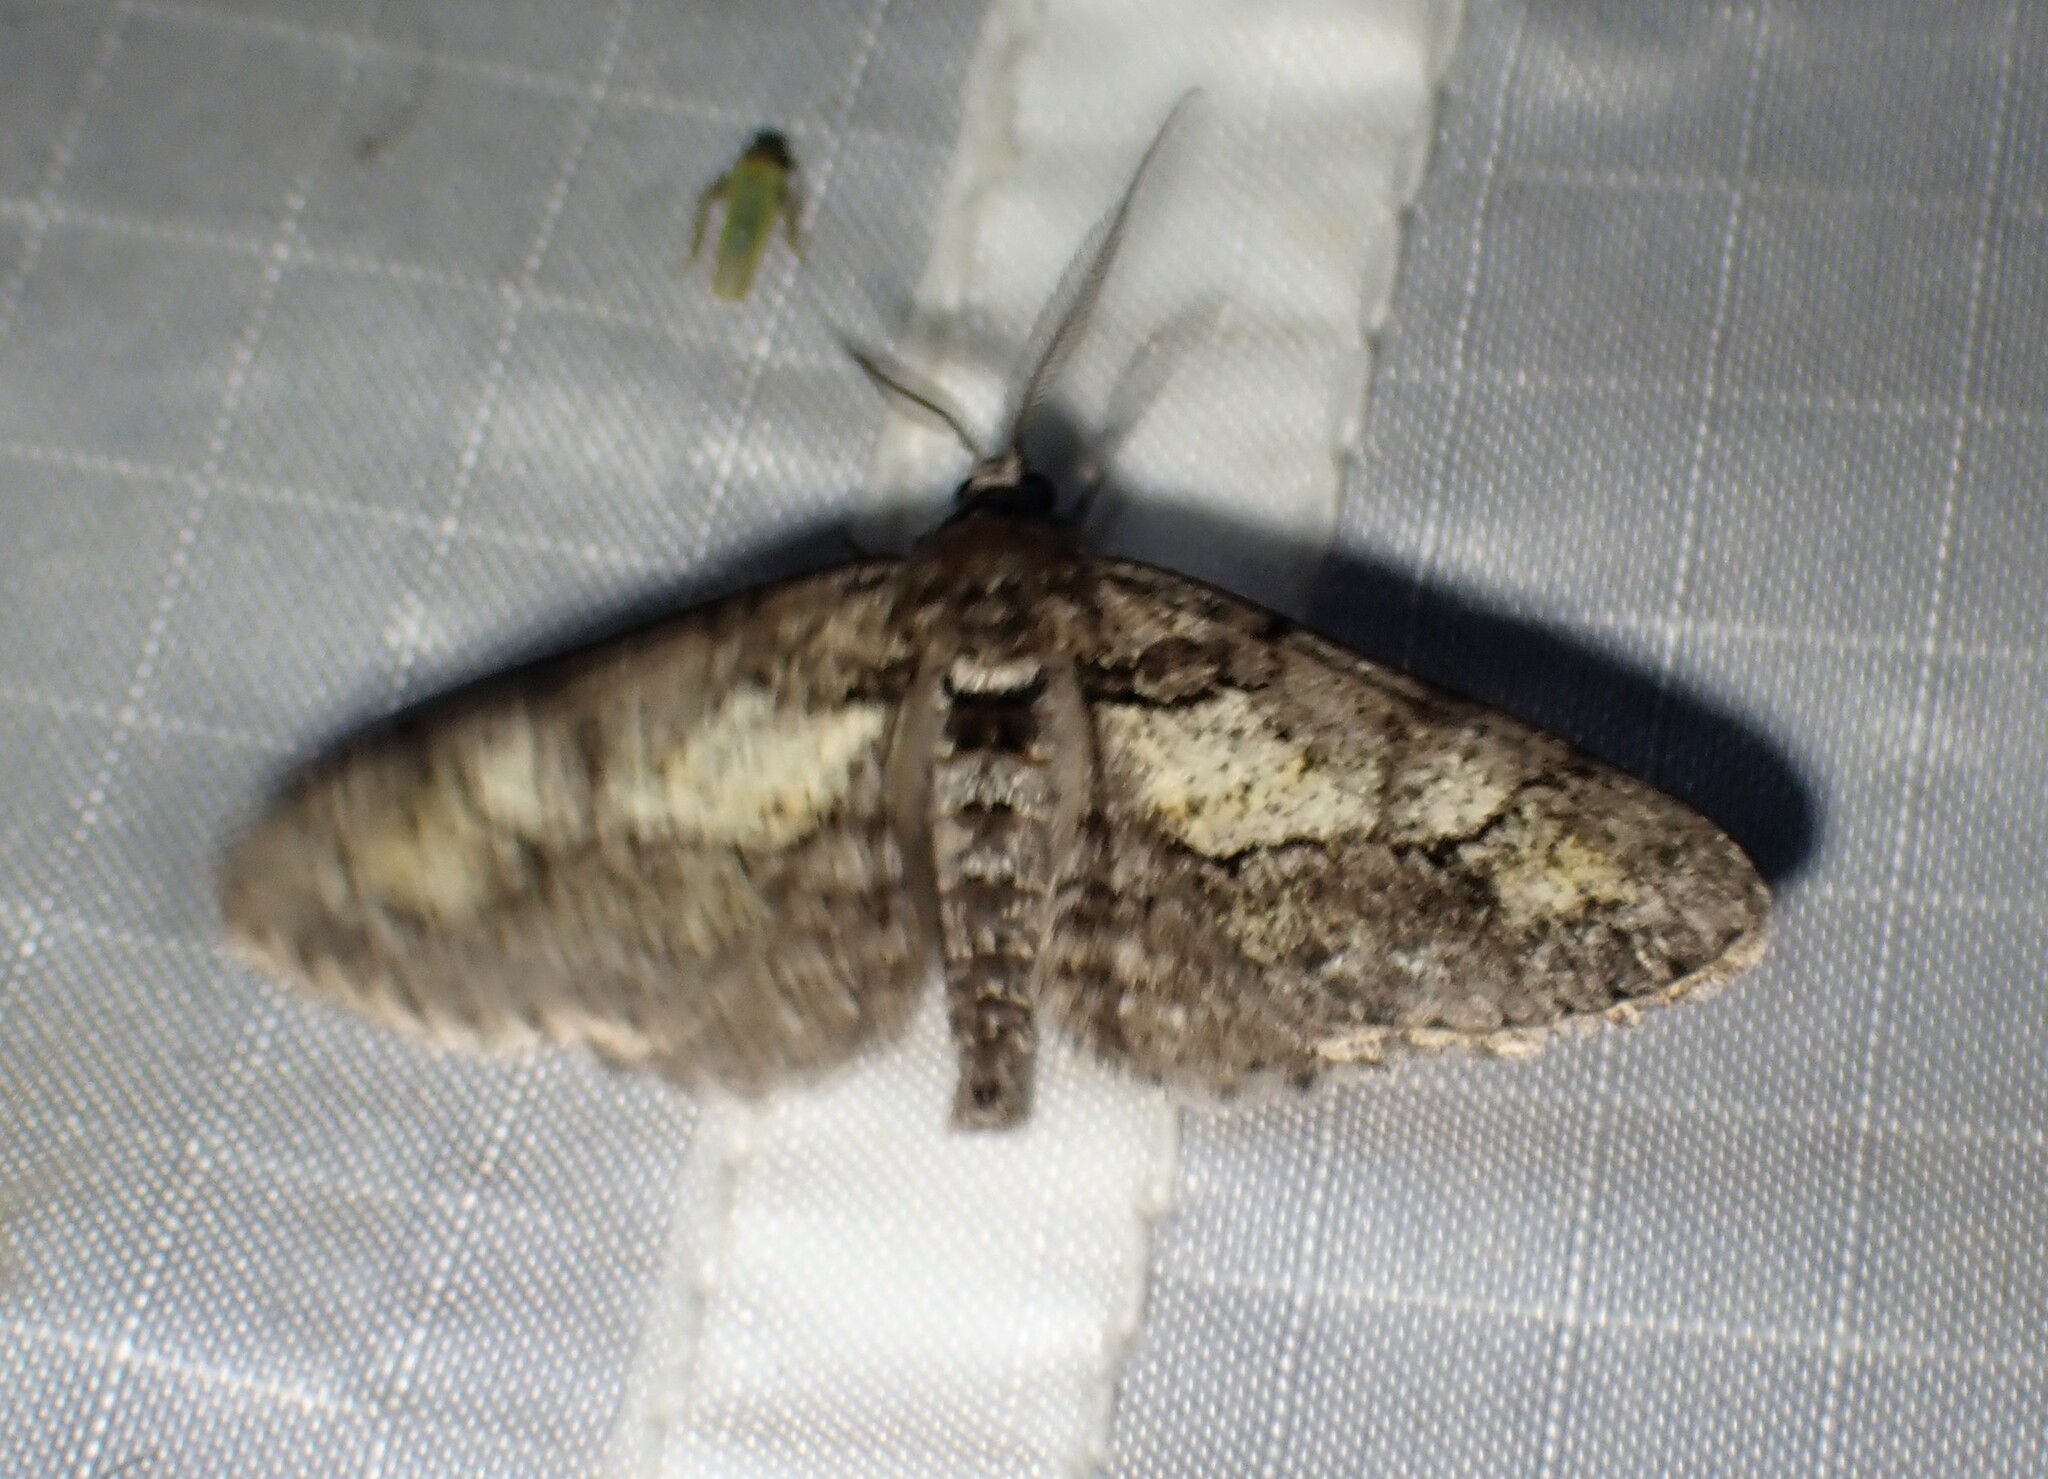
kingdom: Animalia
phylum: Arthropoda
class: Insecta
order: Lepidoptera
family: Geometridae
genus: Cleora
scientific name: Cleora projecta
